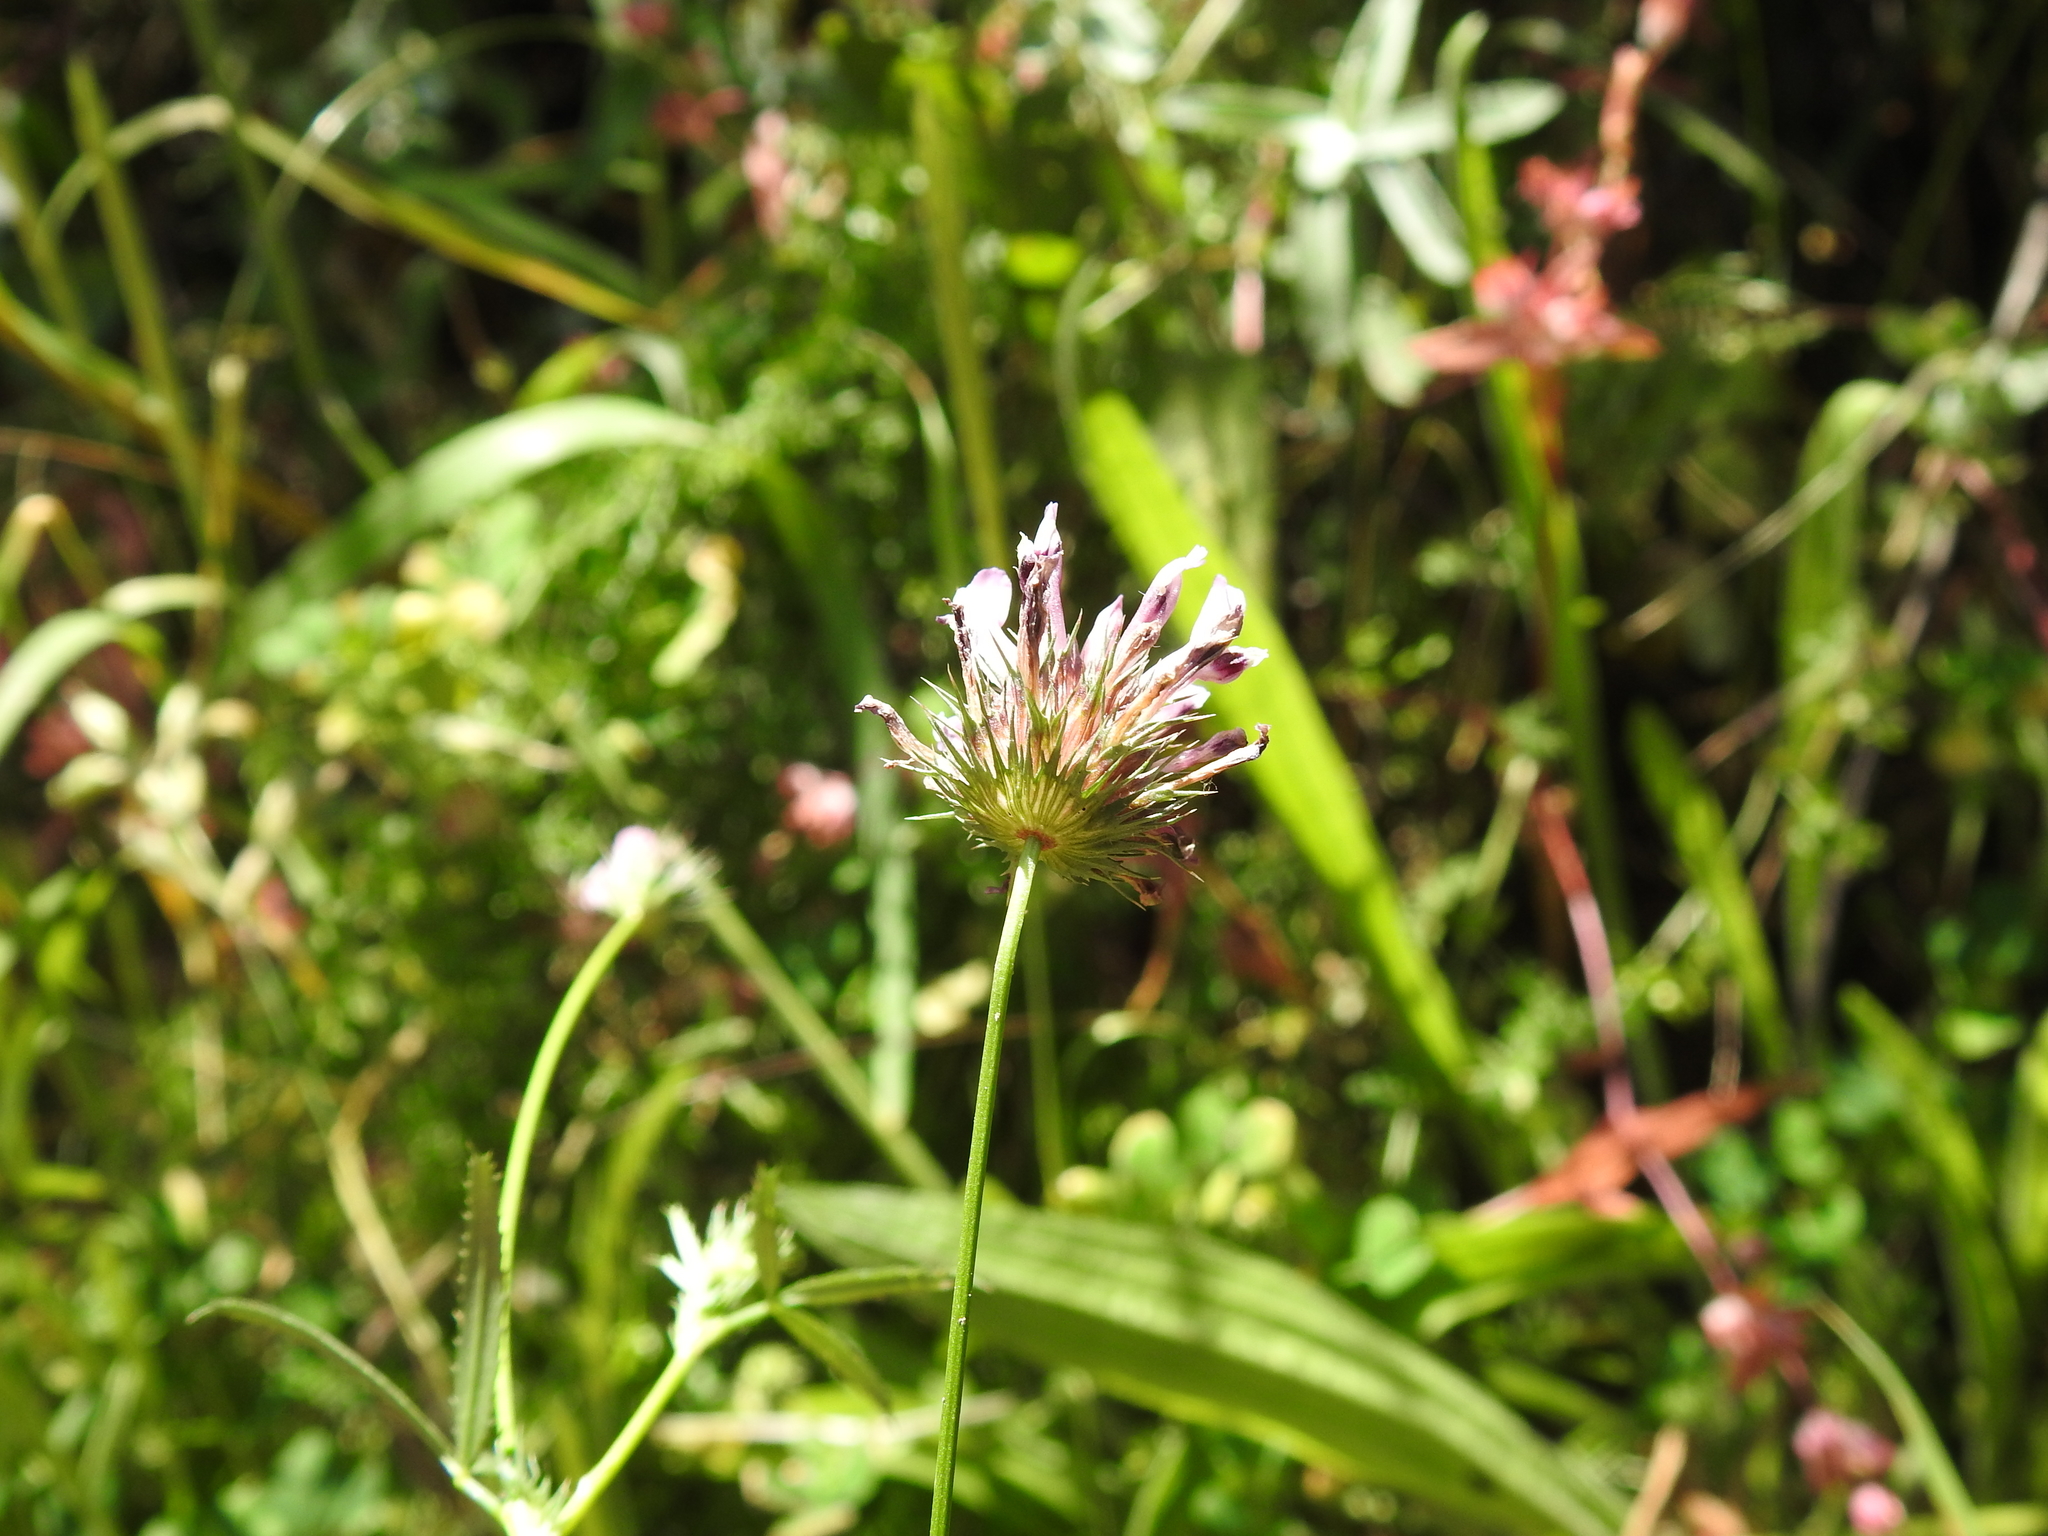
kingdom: Plantae
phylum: Tracheophyta
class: Magnoliopsida
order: Fabales
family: Fabaceae
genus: Trifolium
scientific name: Trifolium willdenovii
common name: Tomcat clover
